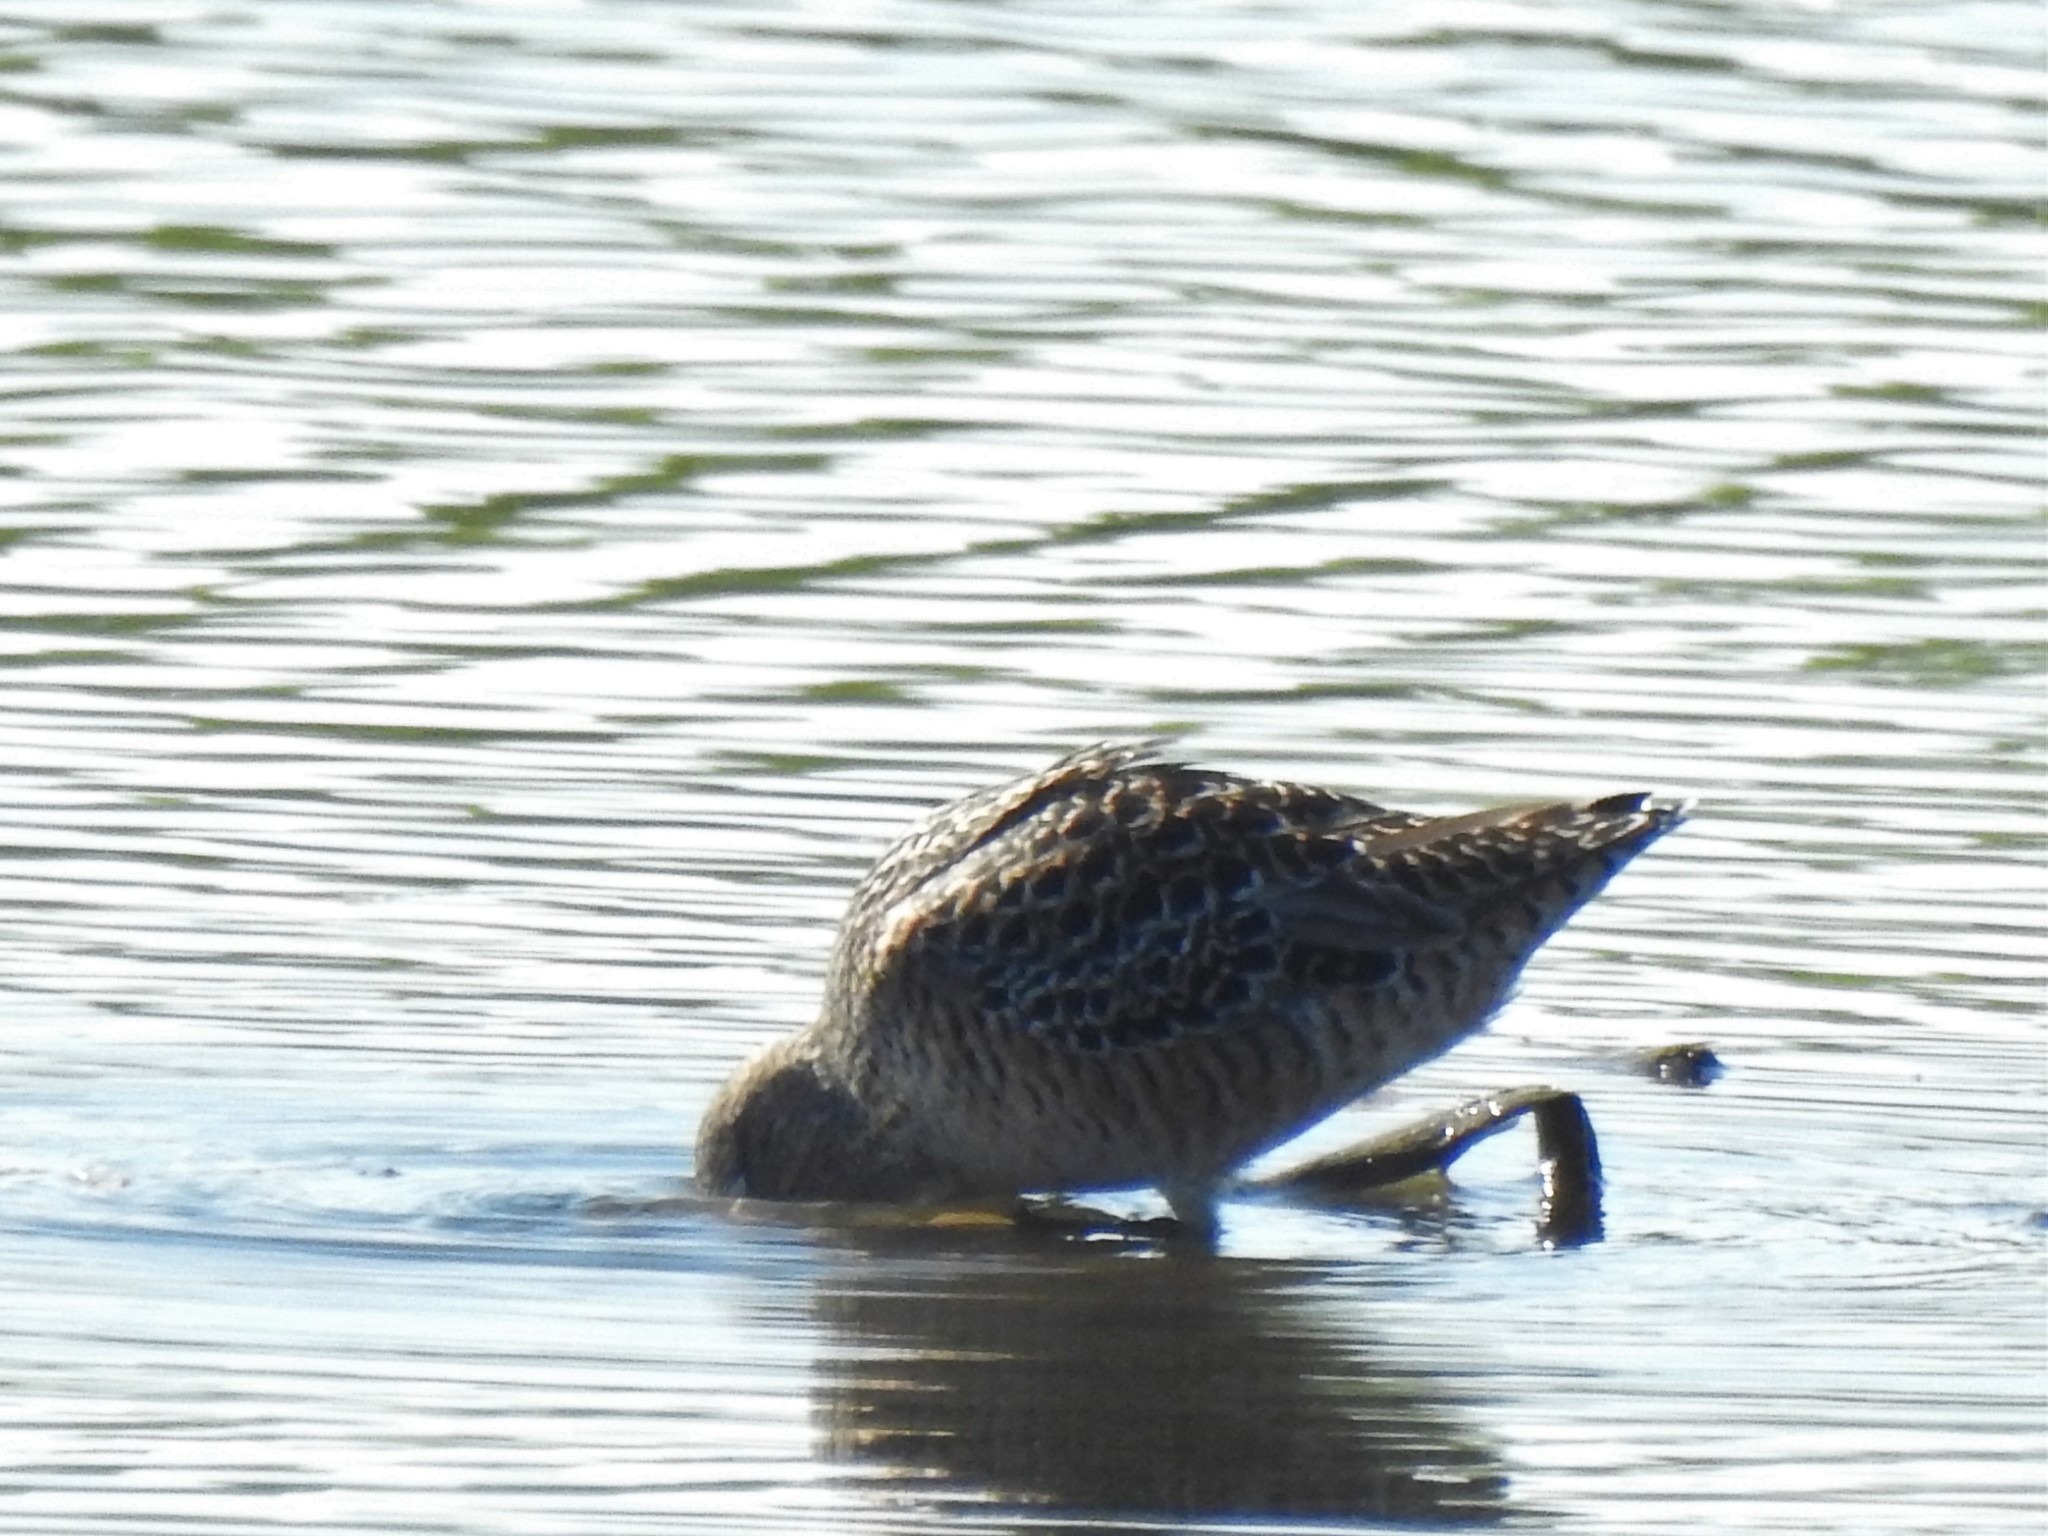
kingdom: Animalia
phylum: Chordata
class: Aves
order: Charadriiformes
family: Scolopacidae
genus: Limnodromus
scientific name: Limnodromus scolopaceus
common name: Long-billed dowitcher
